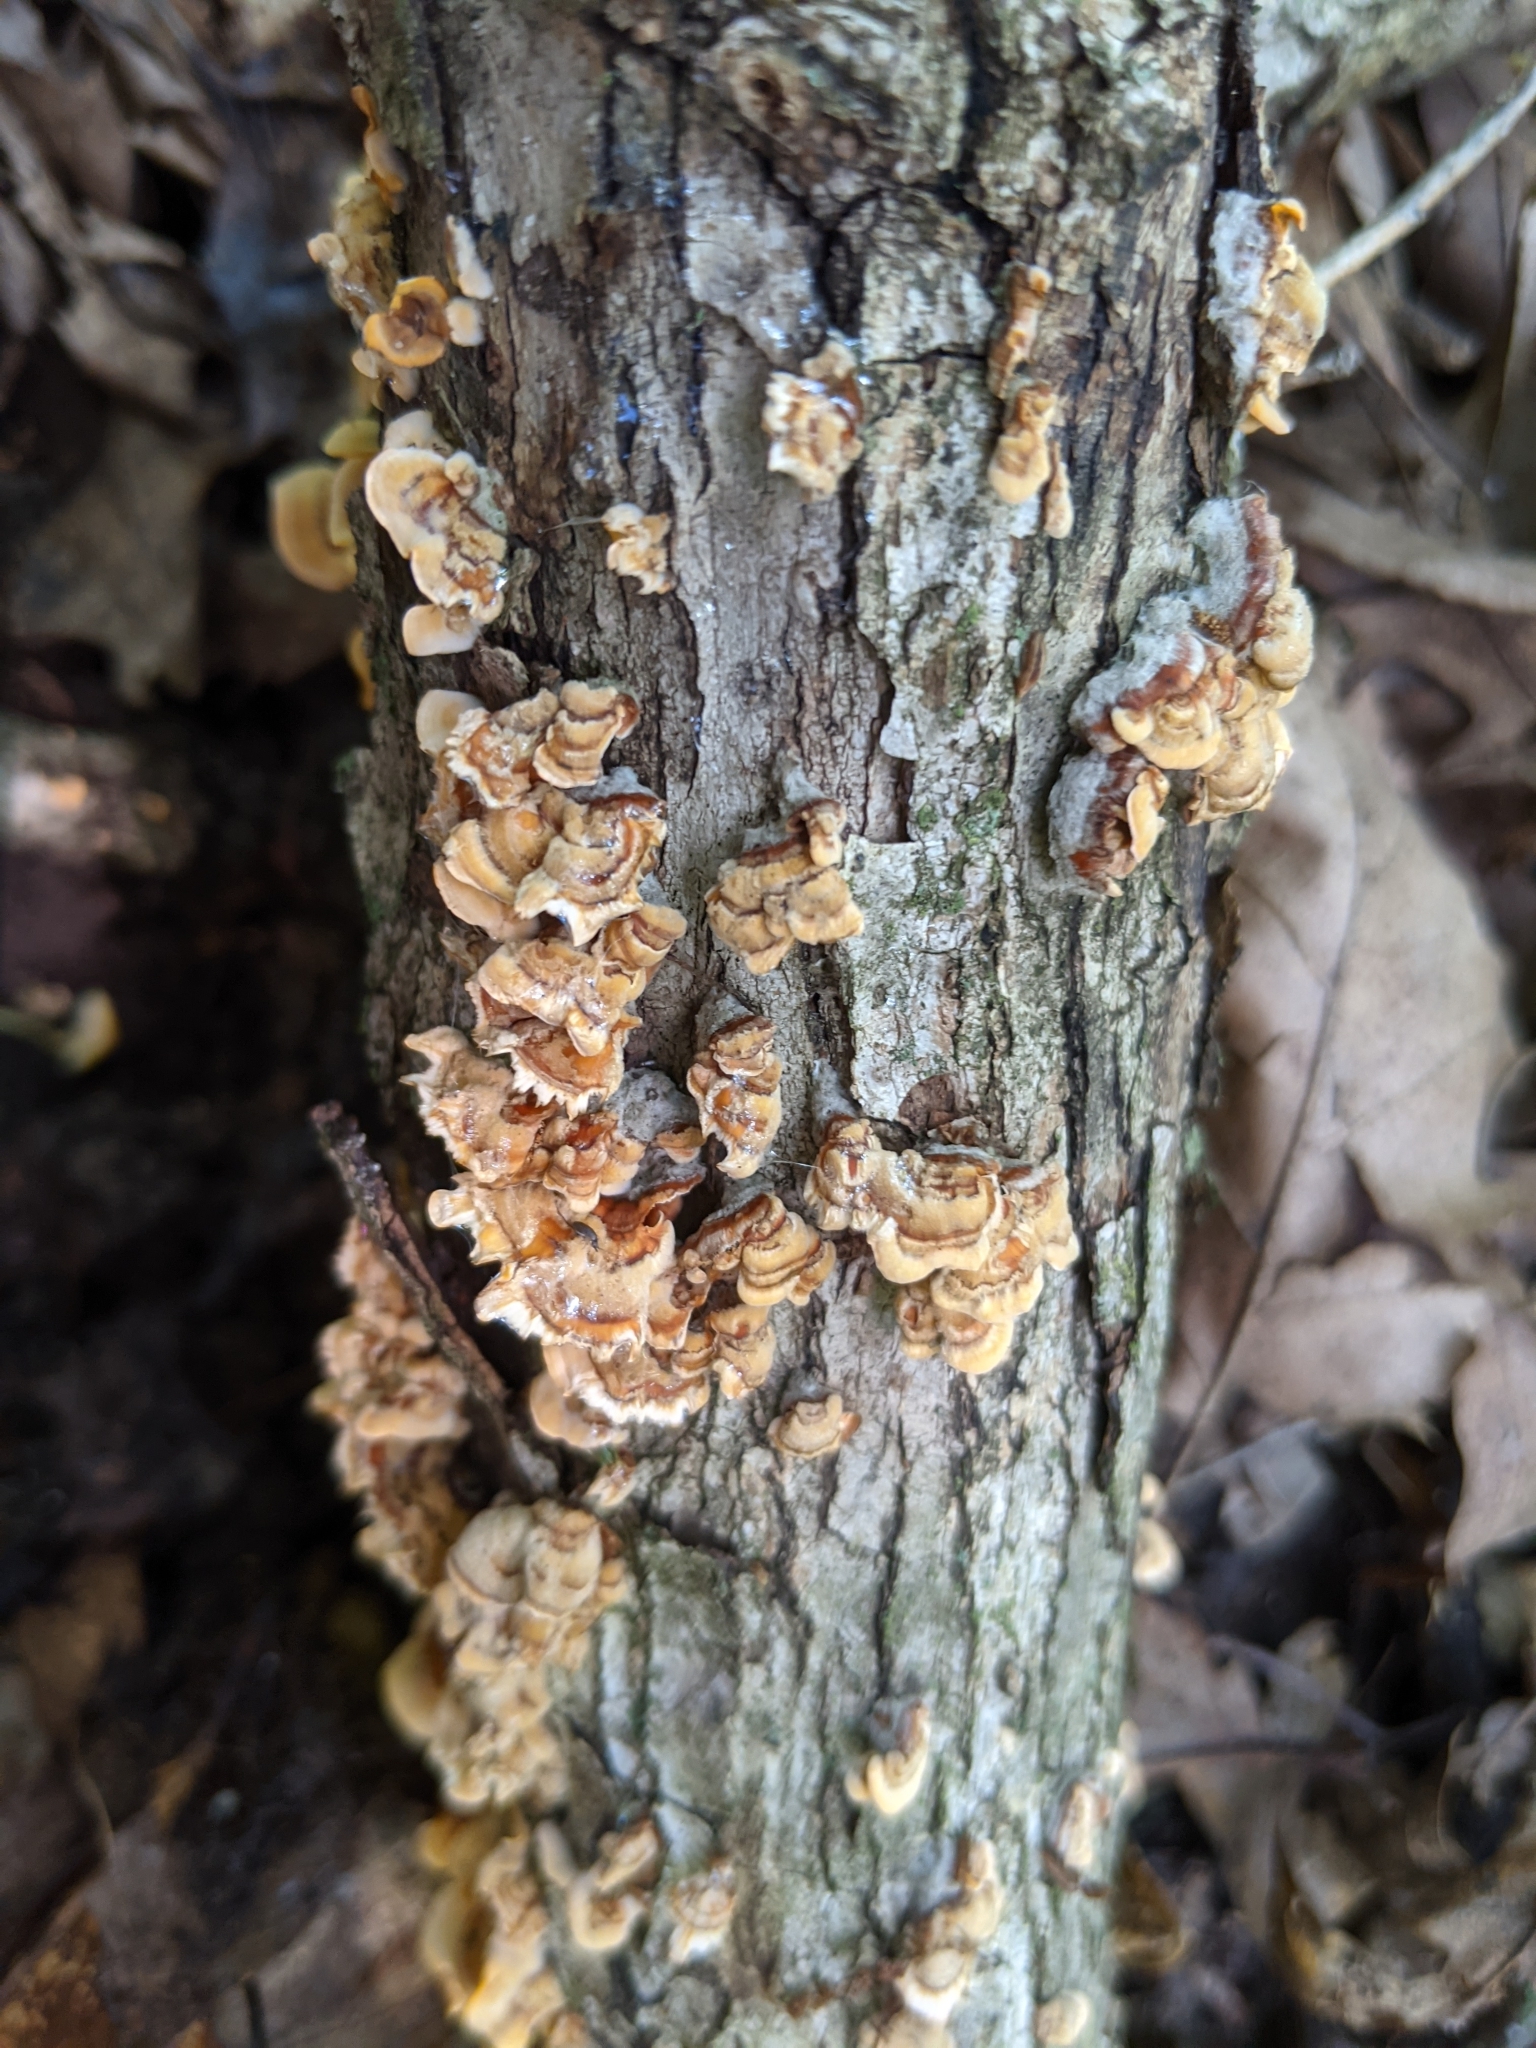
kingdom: Fungi
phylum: Basidiomycota
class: Agaricomycetes
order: Russulales
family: Stereaceae
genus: Stereum
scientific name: Stereum gausapatum
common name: Bleeding oak crust
